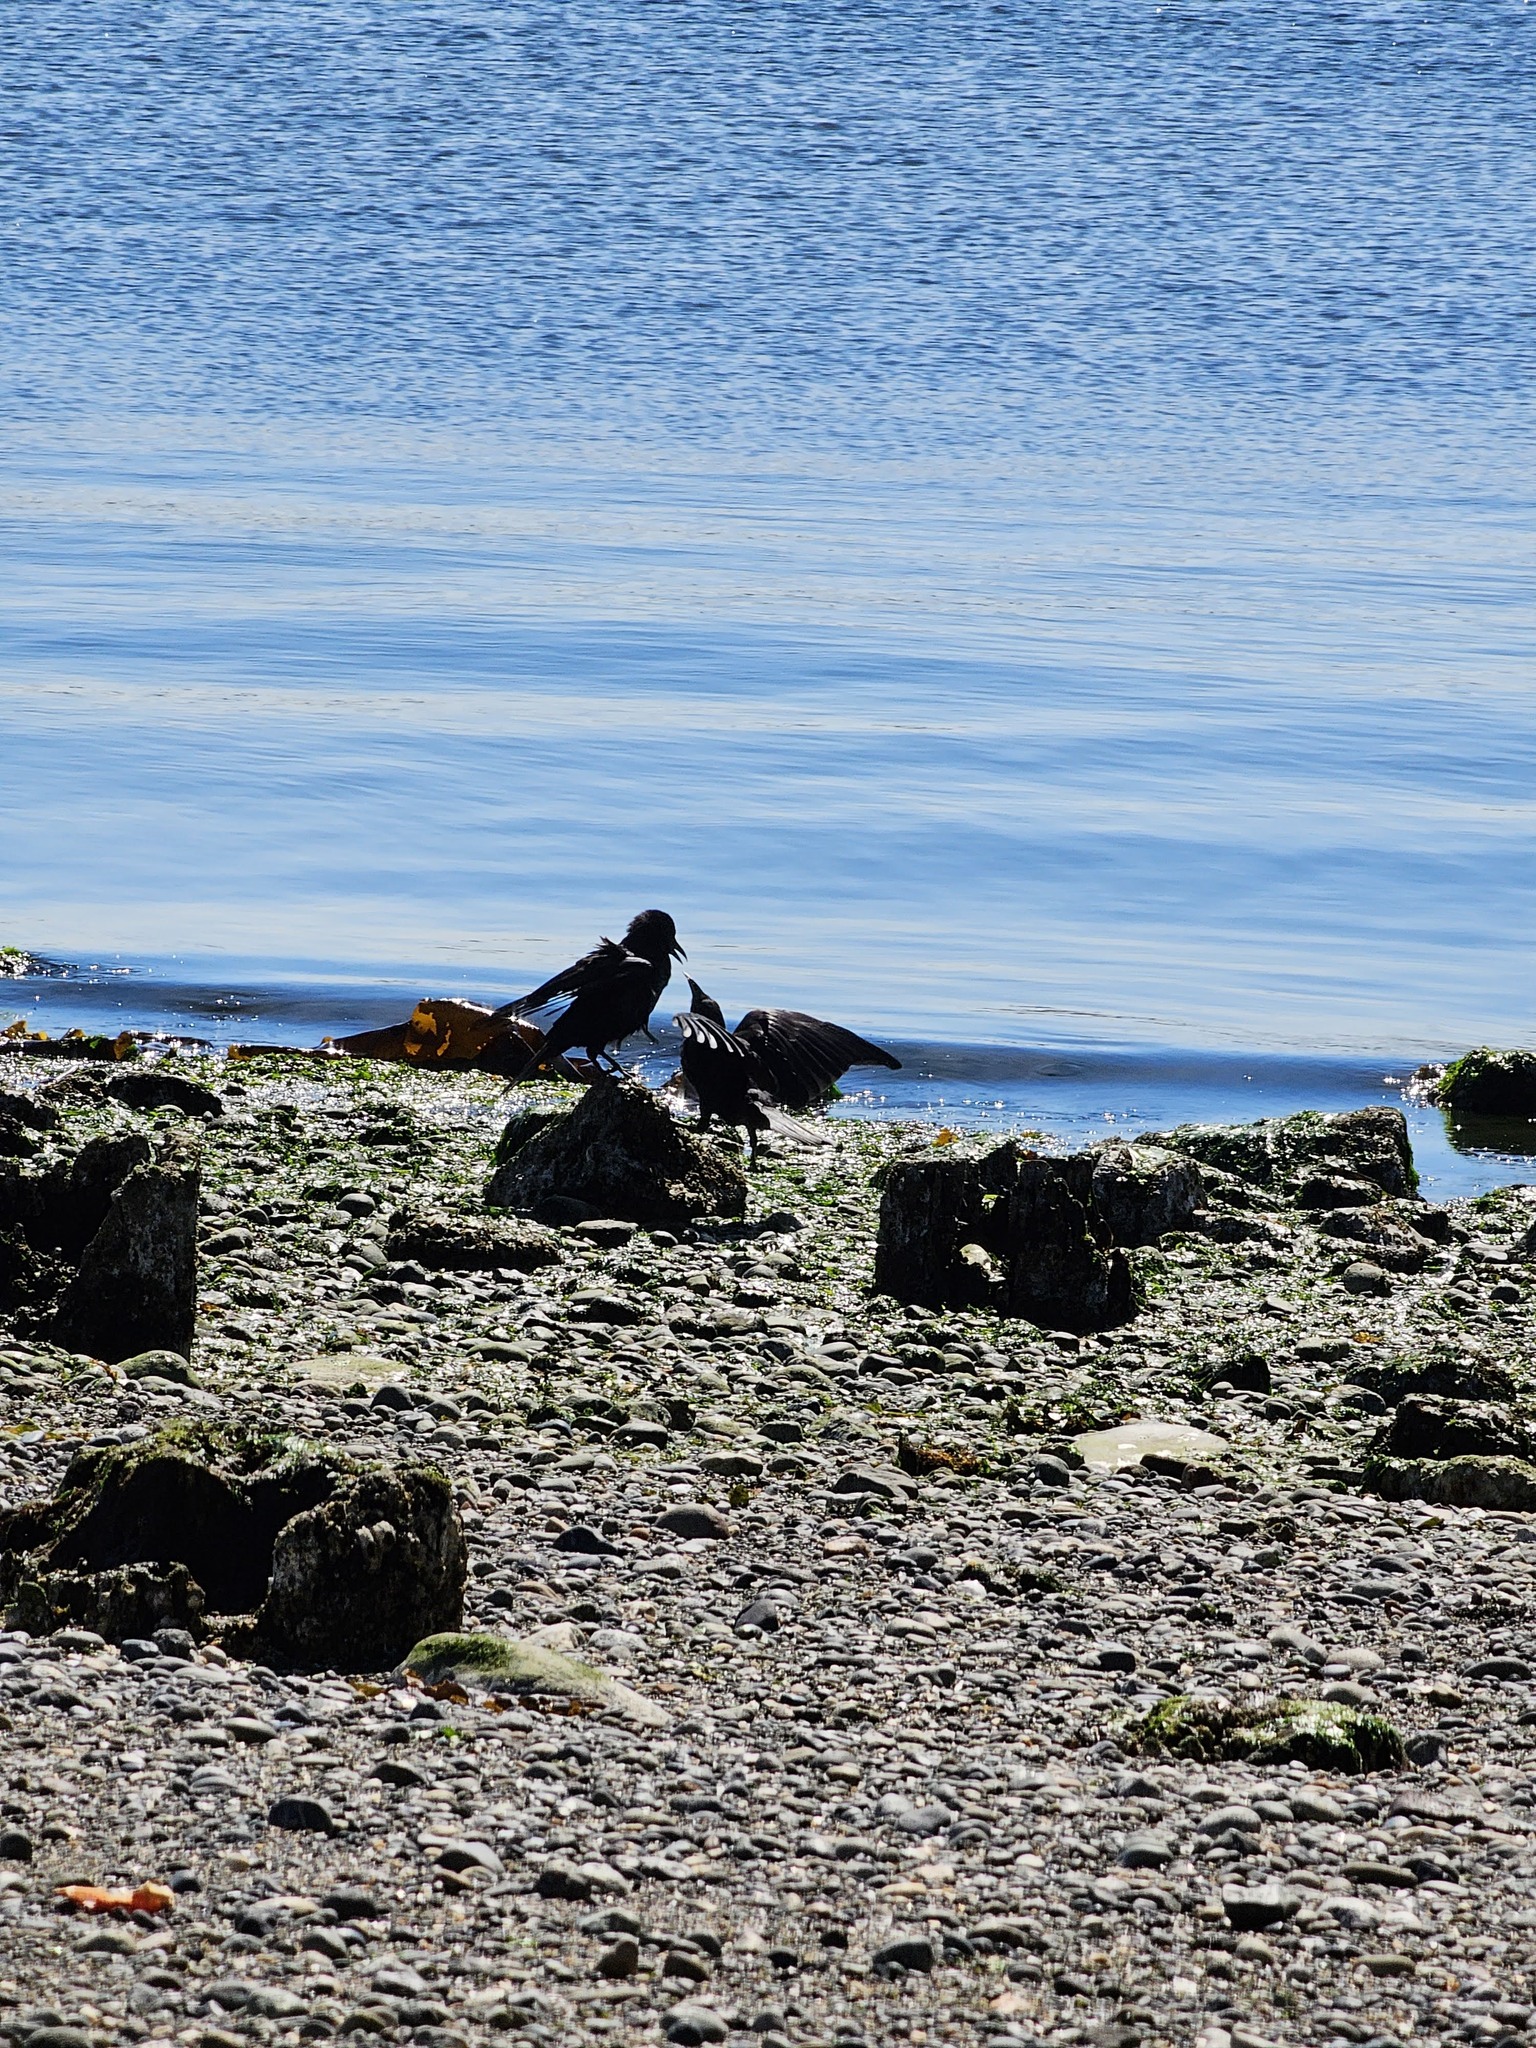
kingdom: Animalia
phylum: Chordata
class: Aves
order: Passeriformes
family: Corvidae
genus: Corvus
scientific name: Corvus brachyrhynchos
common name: American crow
